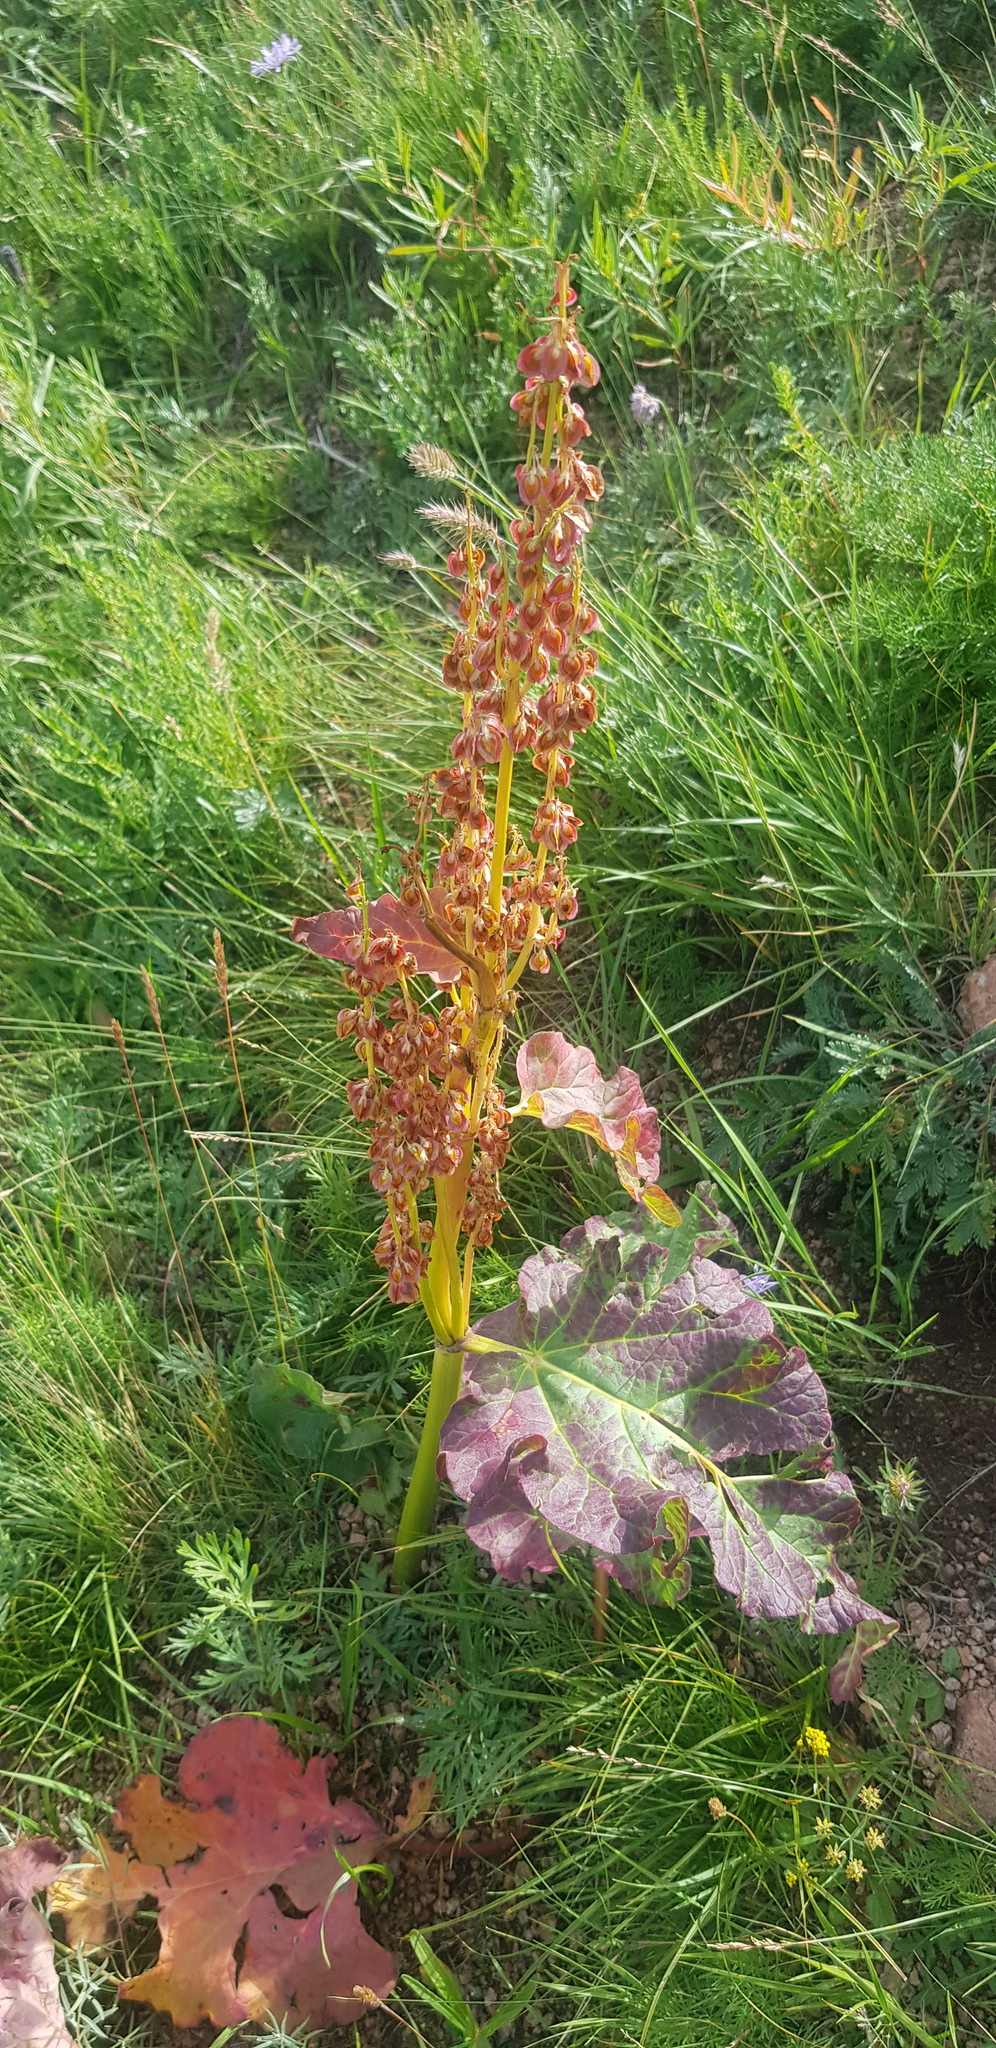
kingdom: Plantae
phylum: Tracheophyta
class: Magnoliopsida
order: Caryophyllales
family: Polygonaceae
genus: Rheum
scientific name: Rheum rhabarbarum
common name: Garden rhubarb
